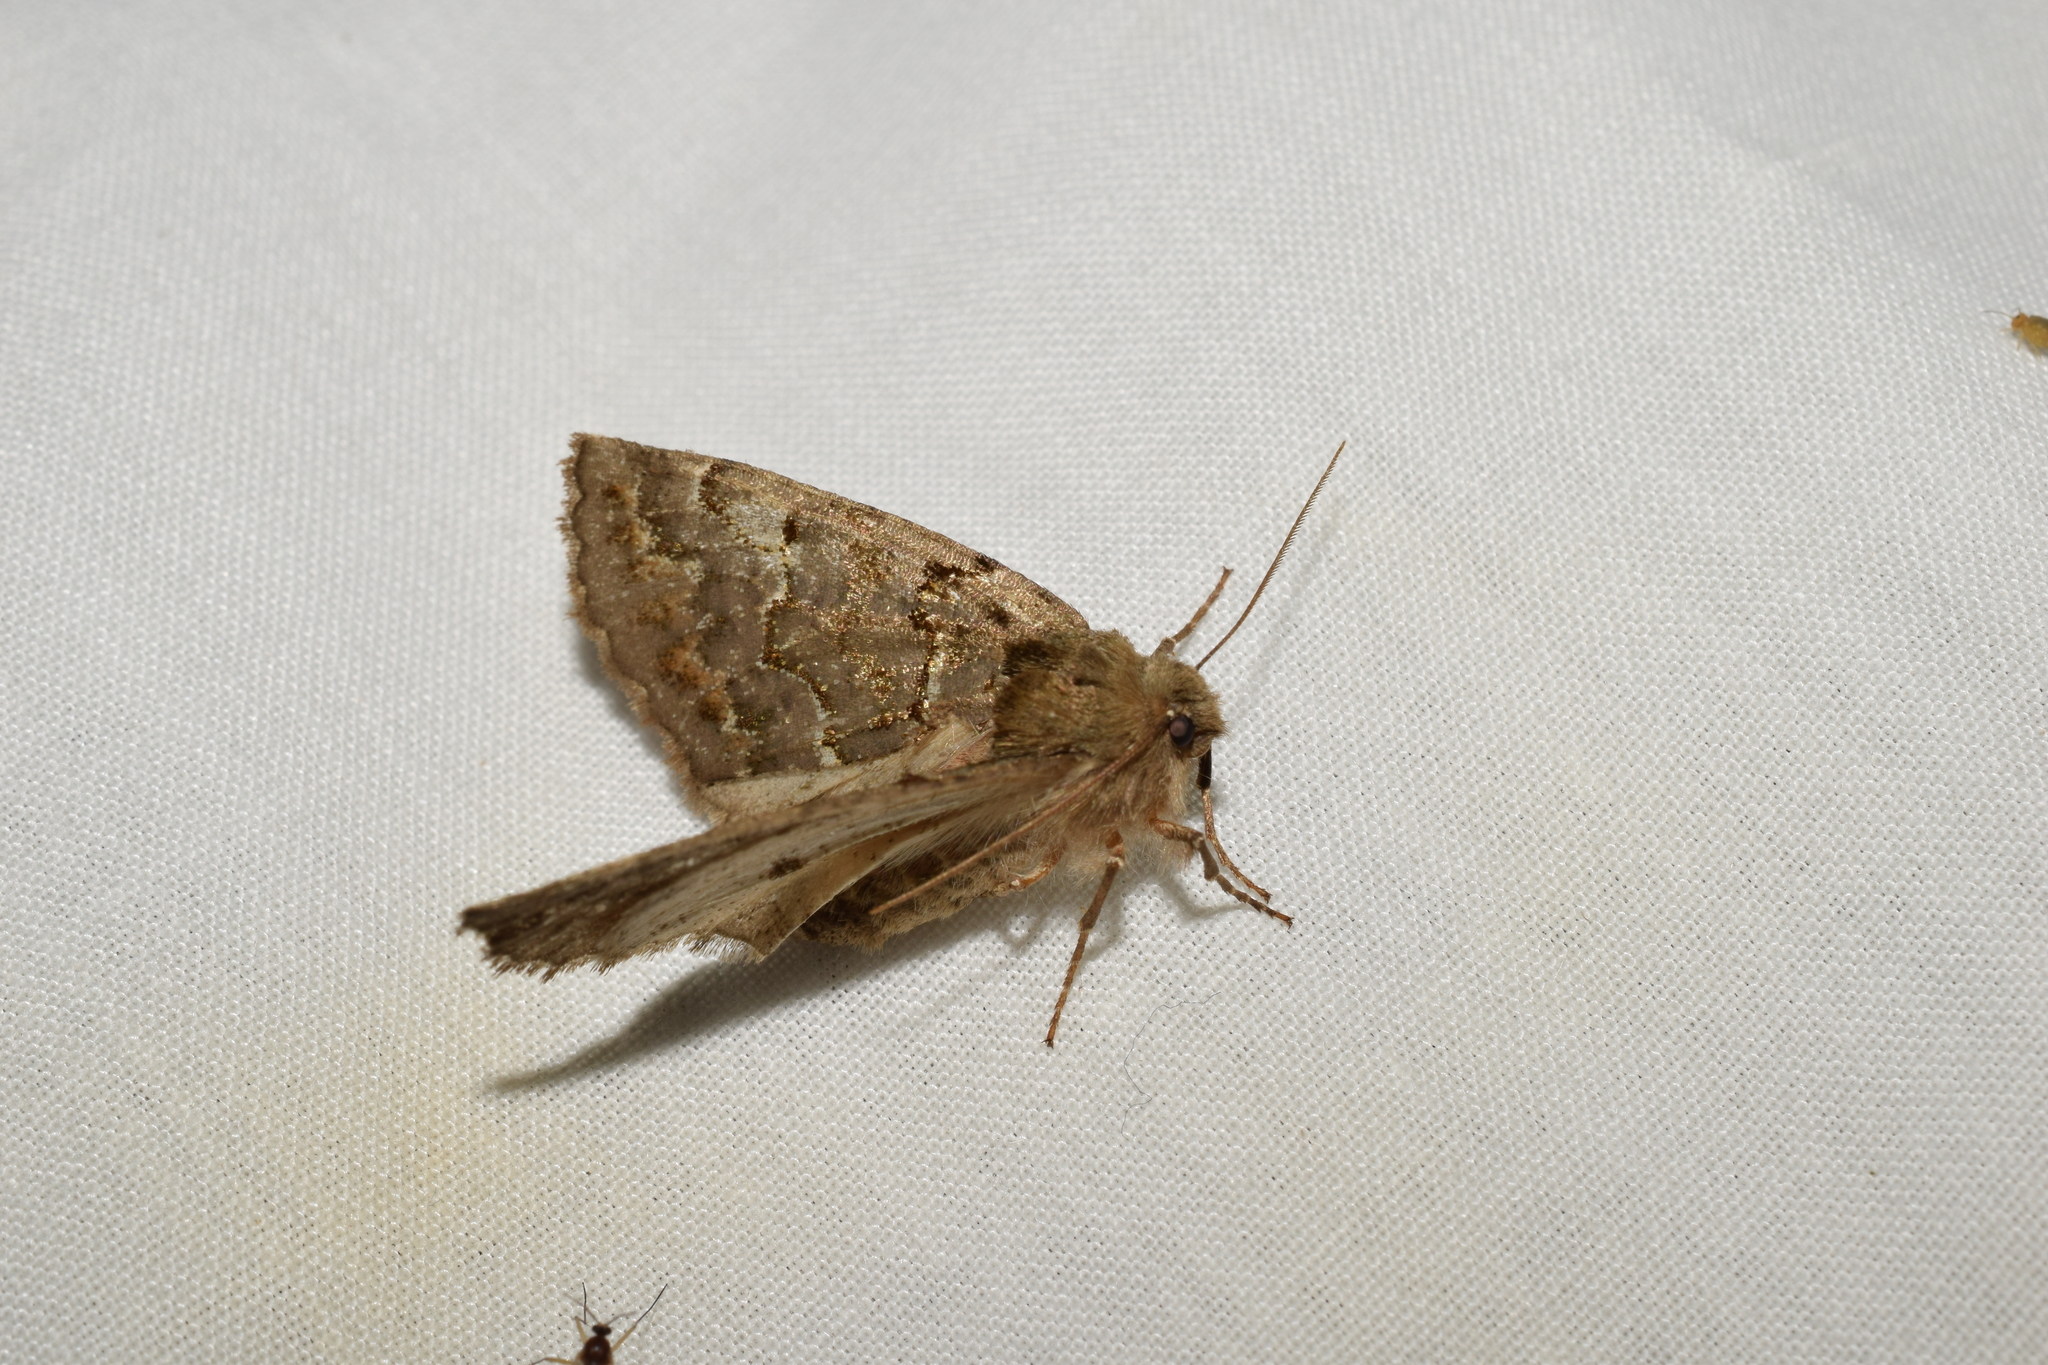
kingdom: Animalia
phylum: Arthropoda
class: Insecta
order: Lepidoptera
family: Geometridae
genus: Pachyligia
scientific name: Pachyligia dolosa
